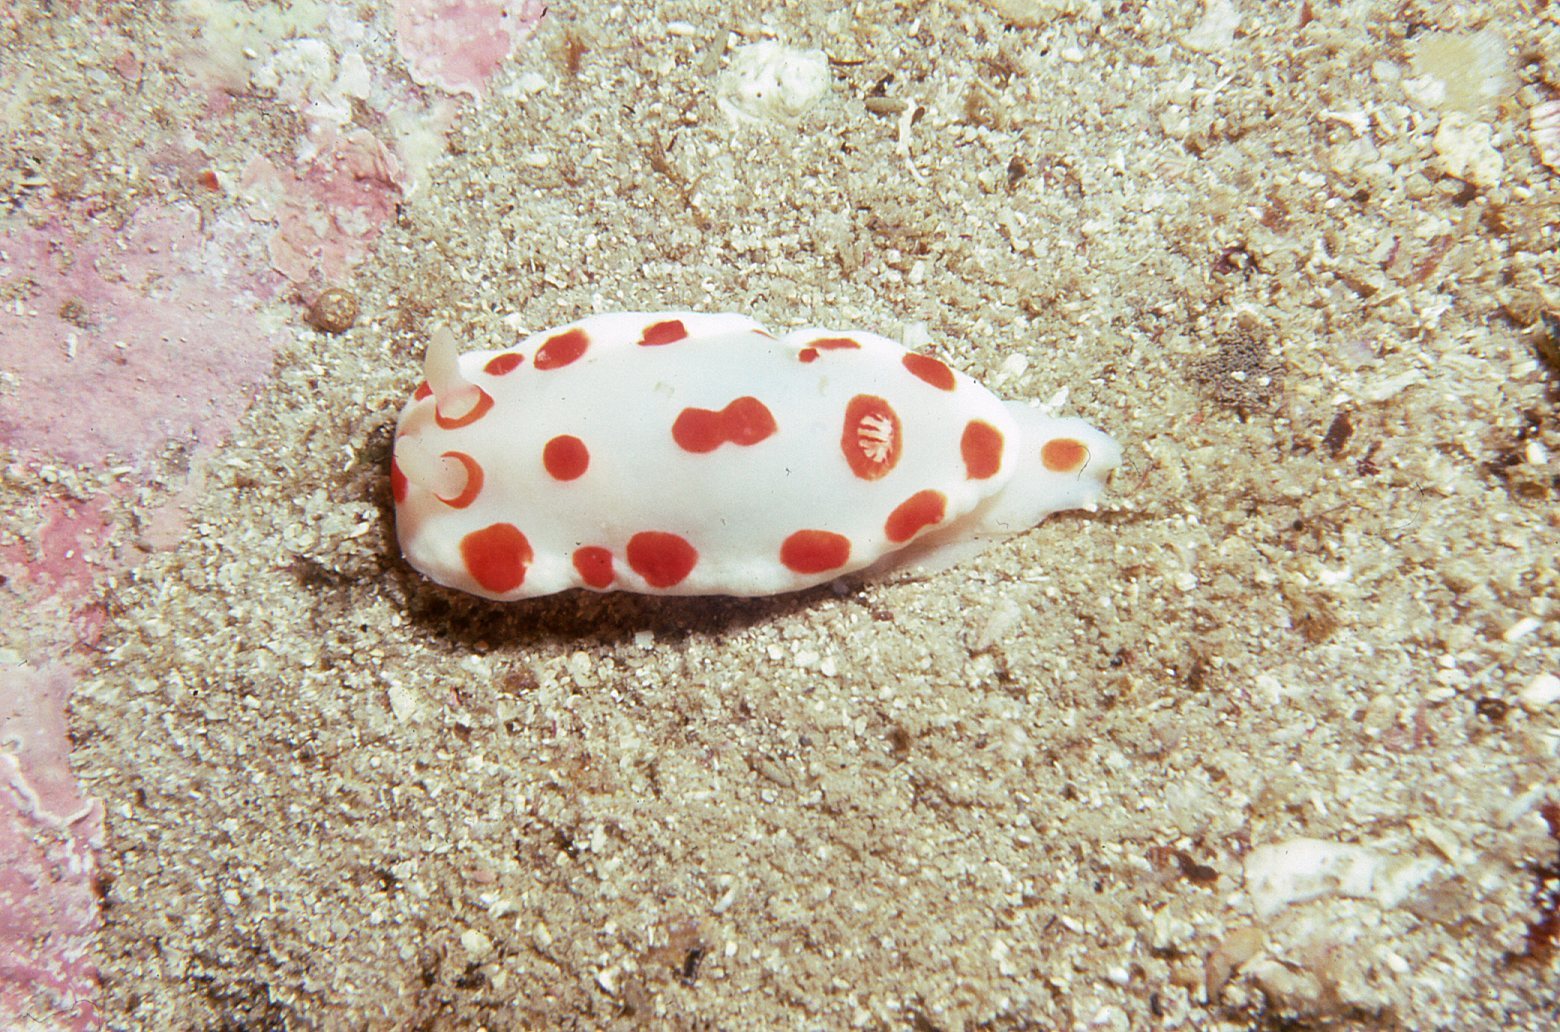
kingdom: Animalia
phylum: Mollusca
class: Gastropoda
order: Nudibranchia
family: Chromodorididae
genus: Goniobranchus
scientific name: Goniobranchus tasmaniensis
